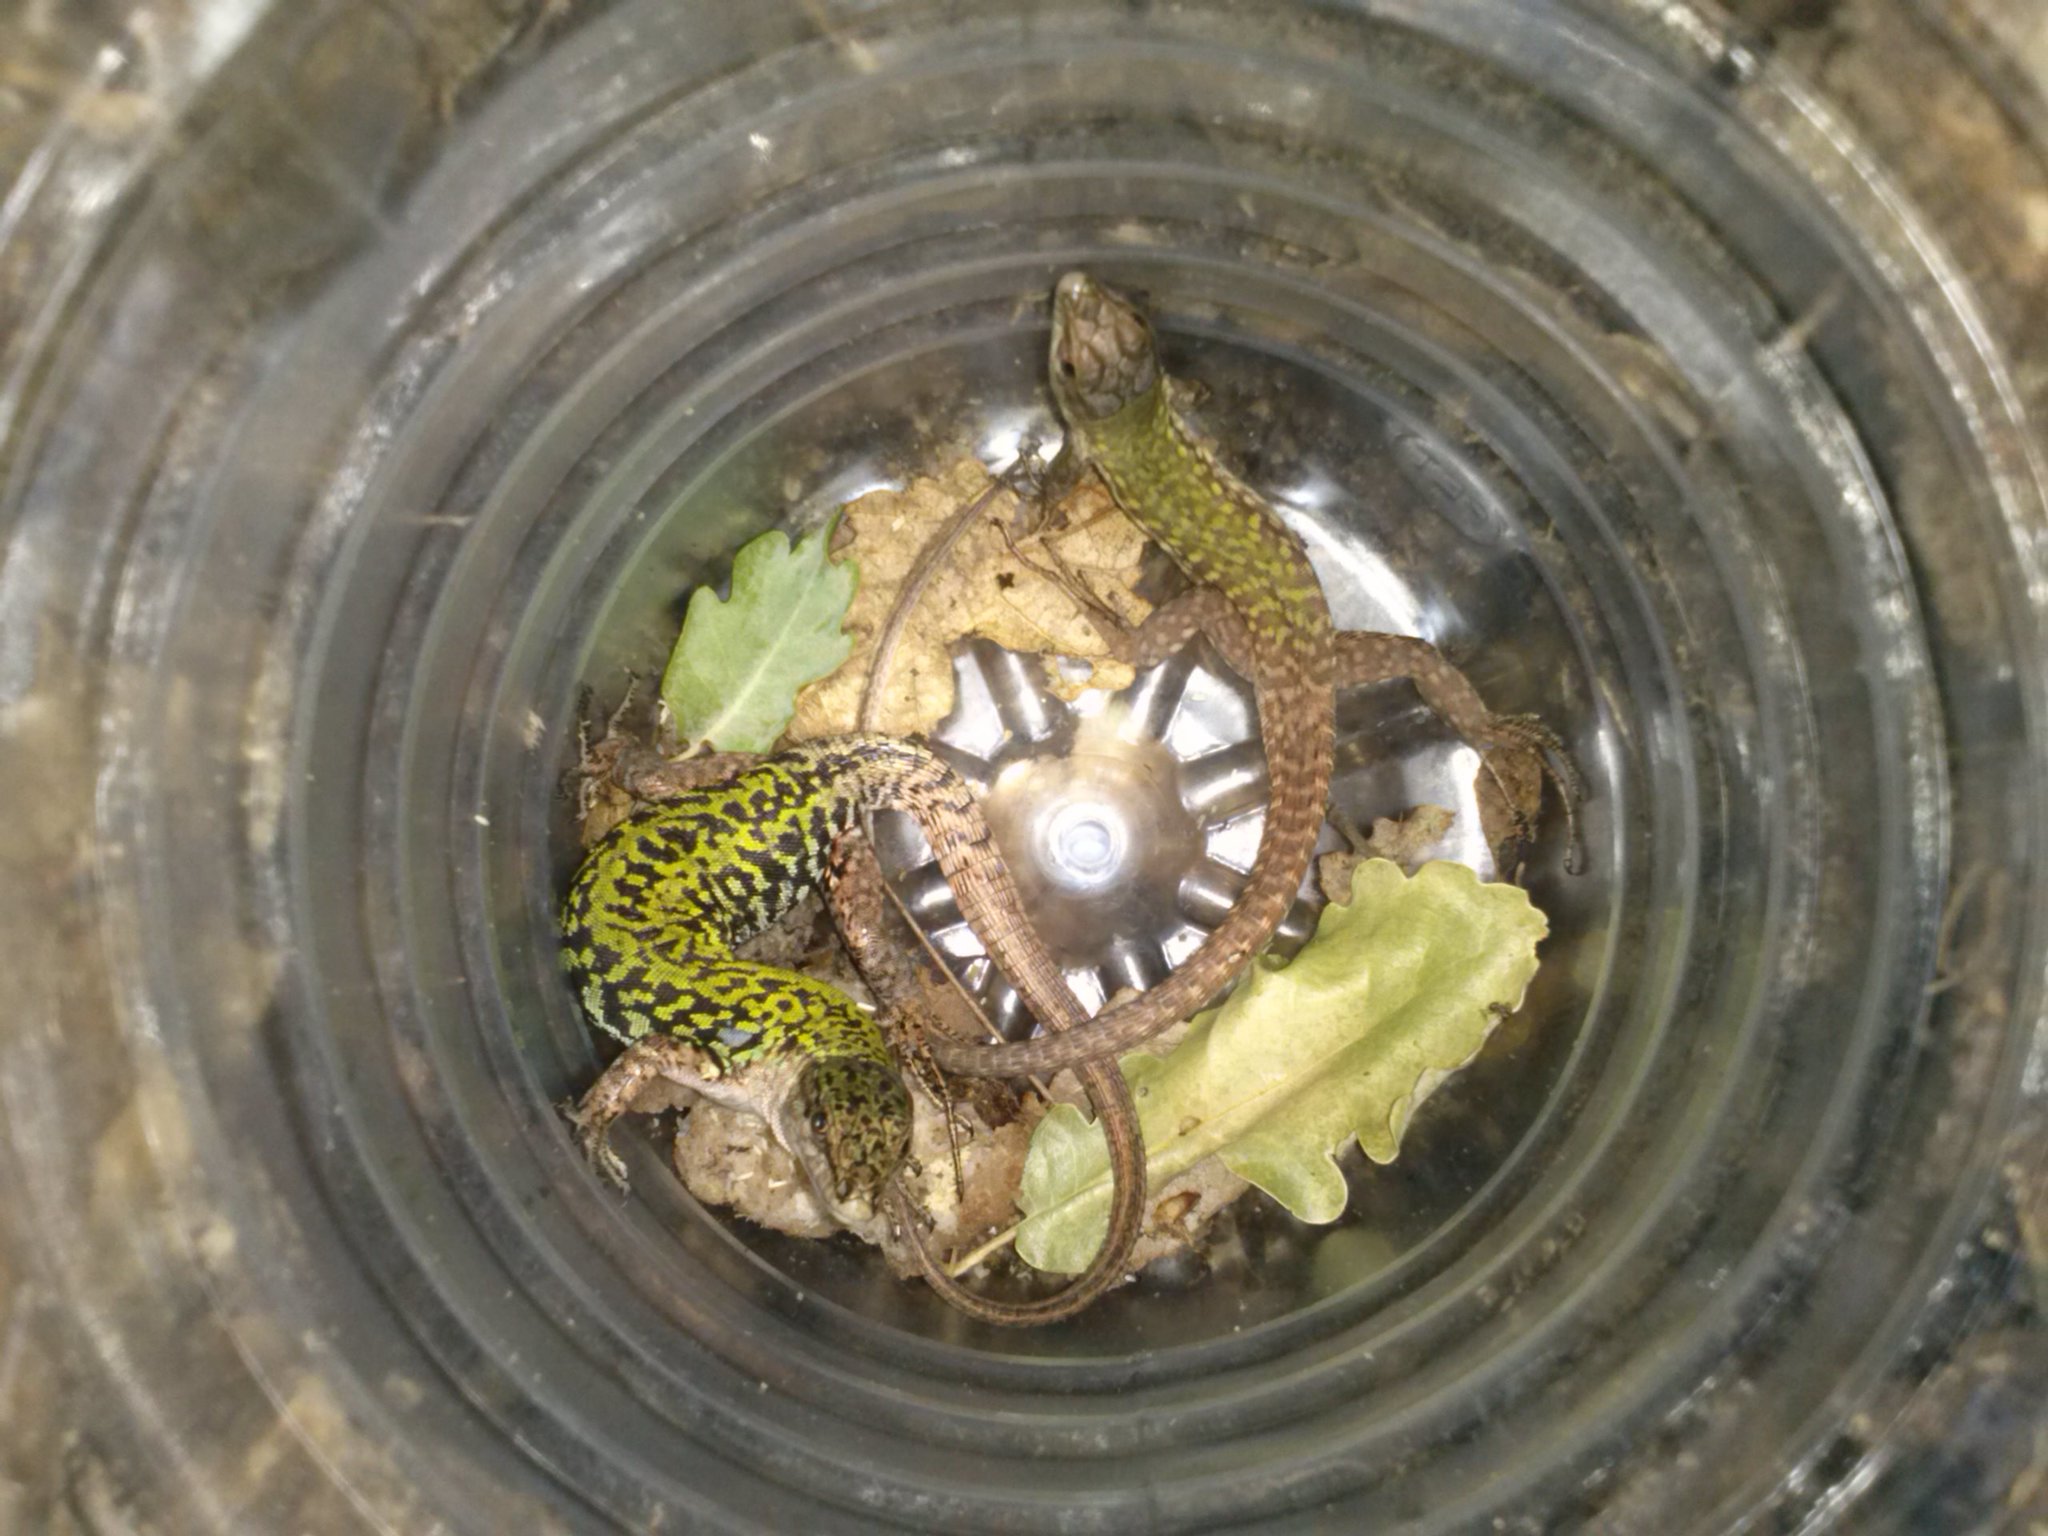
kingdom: Animalia
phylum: Chordata
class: Squamata
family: Lacertidae
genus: Podarcis
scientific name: Podarcis siculus
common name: Italian wall lizard
